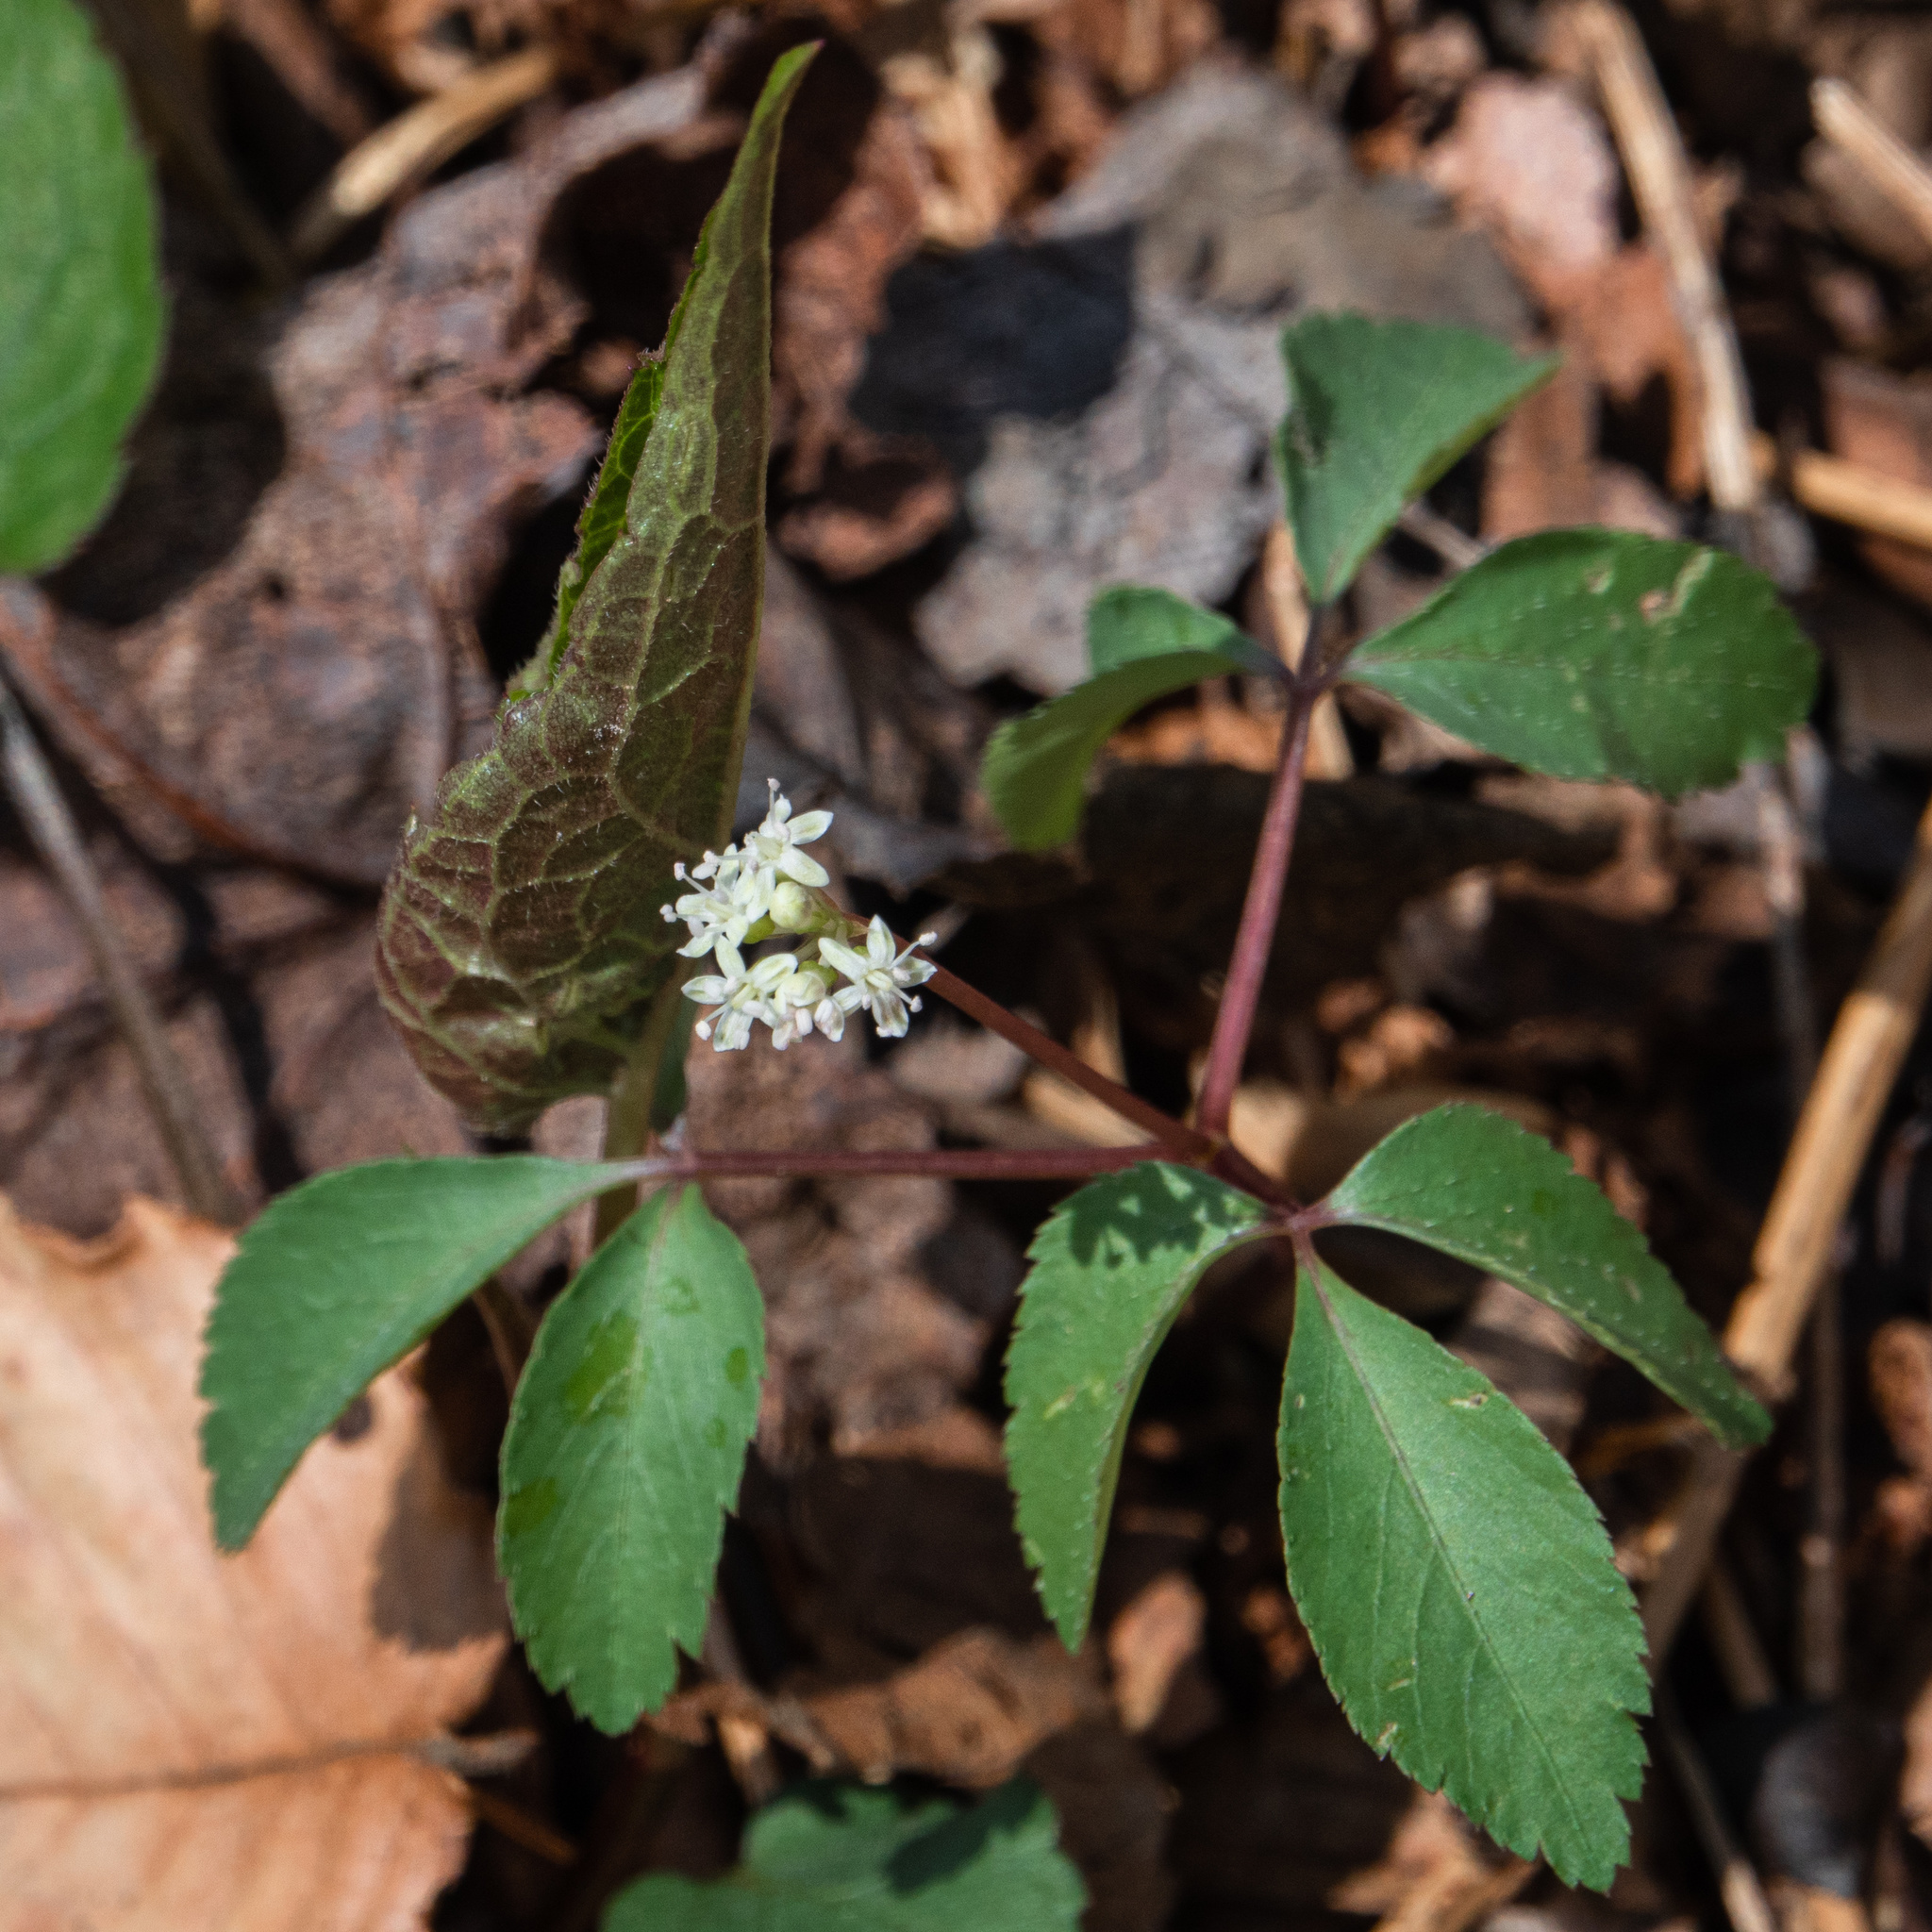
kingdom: Plantae
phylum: Tracheophyta
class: Magnoliopsida
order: Apiales
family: Araliaceae
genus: Panax
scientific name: Panax trifolius
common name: Dwarf ginseng
